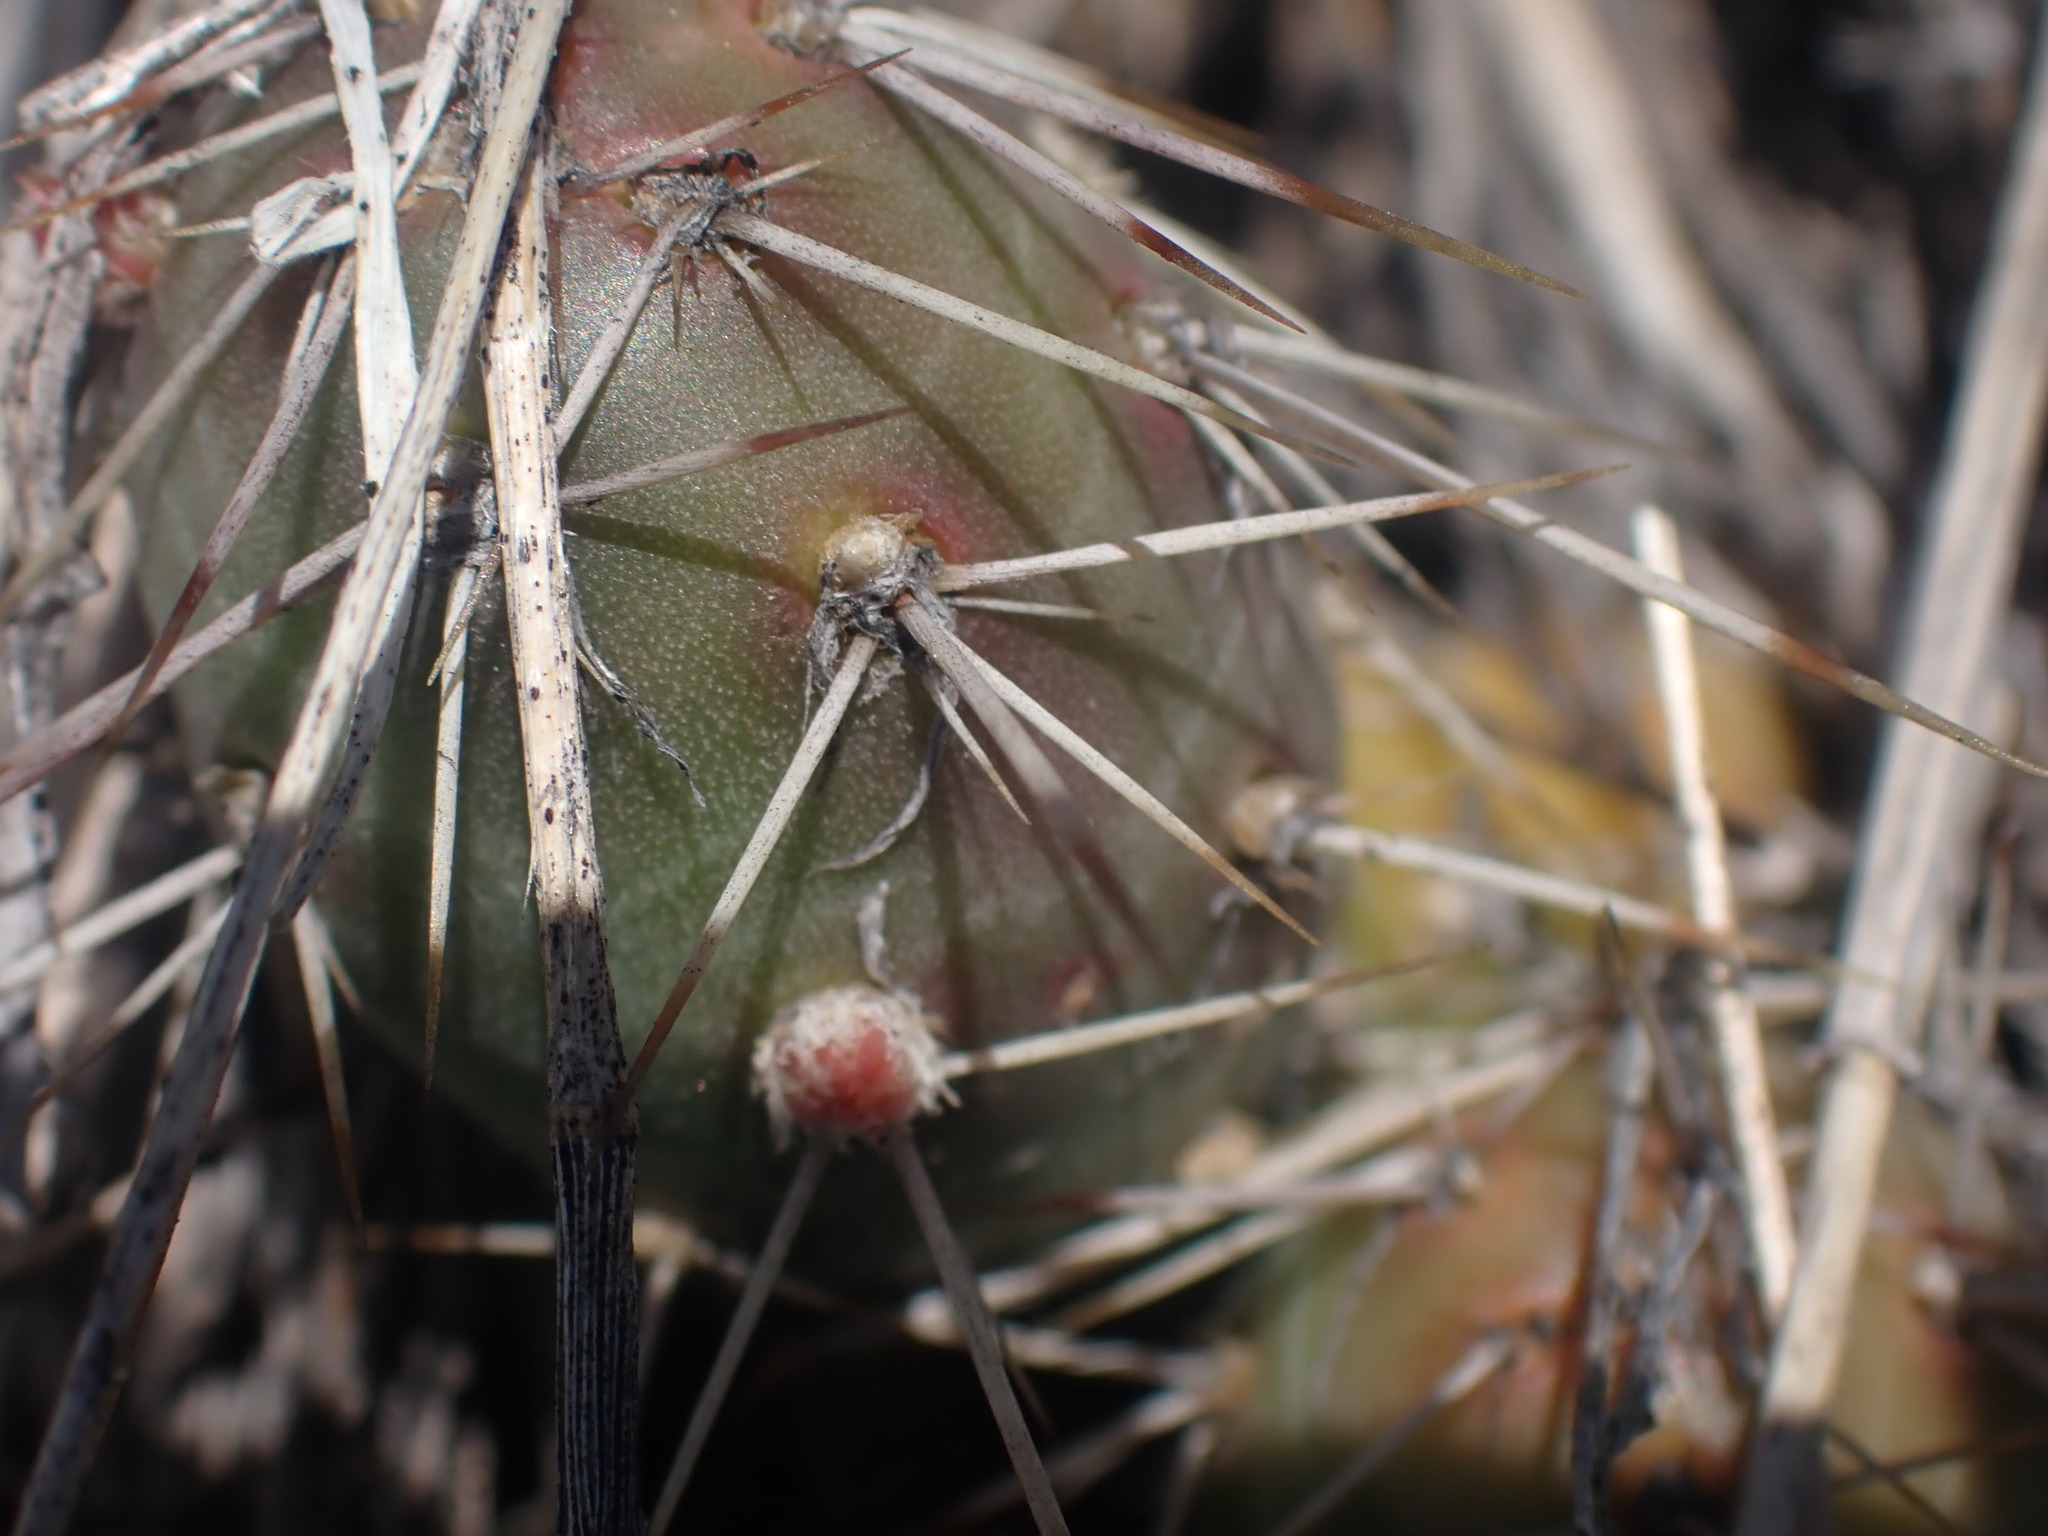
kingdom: Plantae
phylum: Tracheophyta
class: Magnoliopsida
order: Caryophyllales
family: Cactaceae
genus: Opuntia
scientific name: Opuntia fragilis
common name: Brittle cactus
